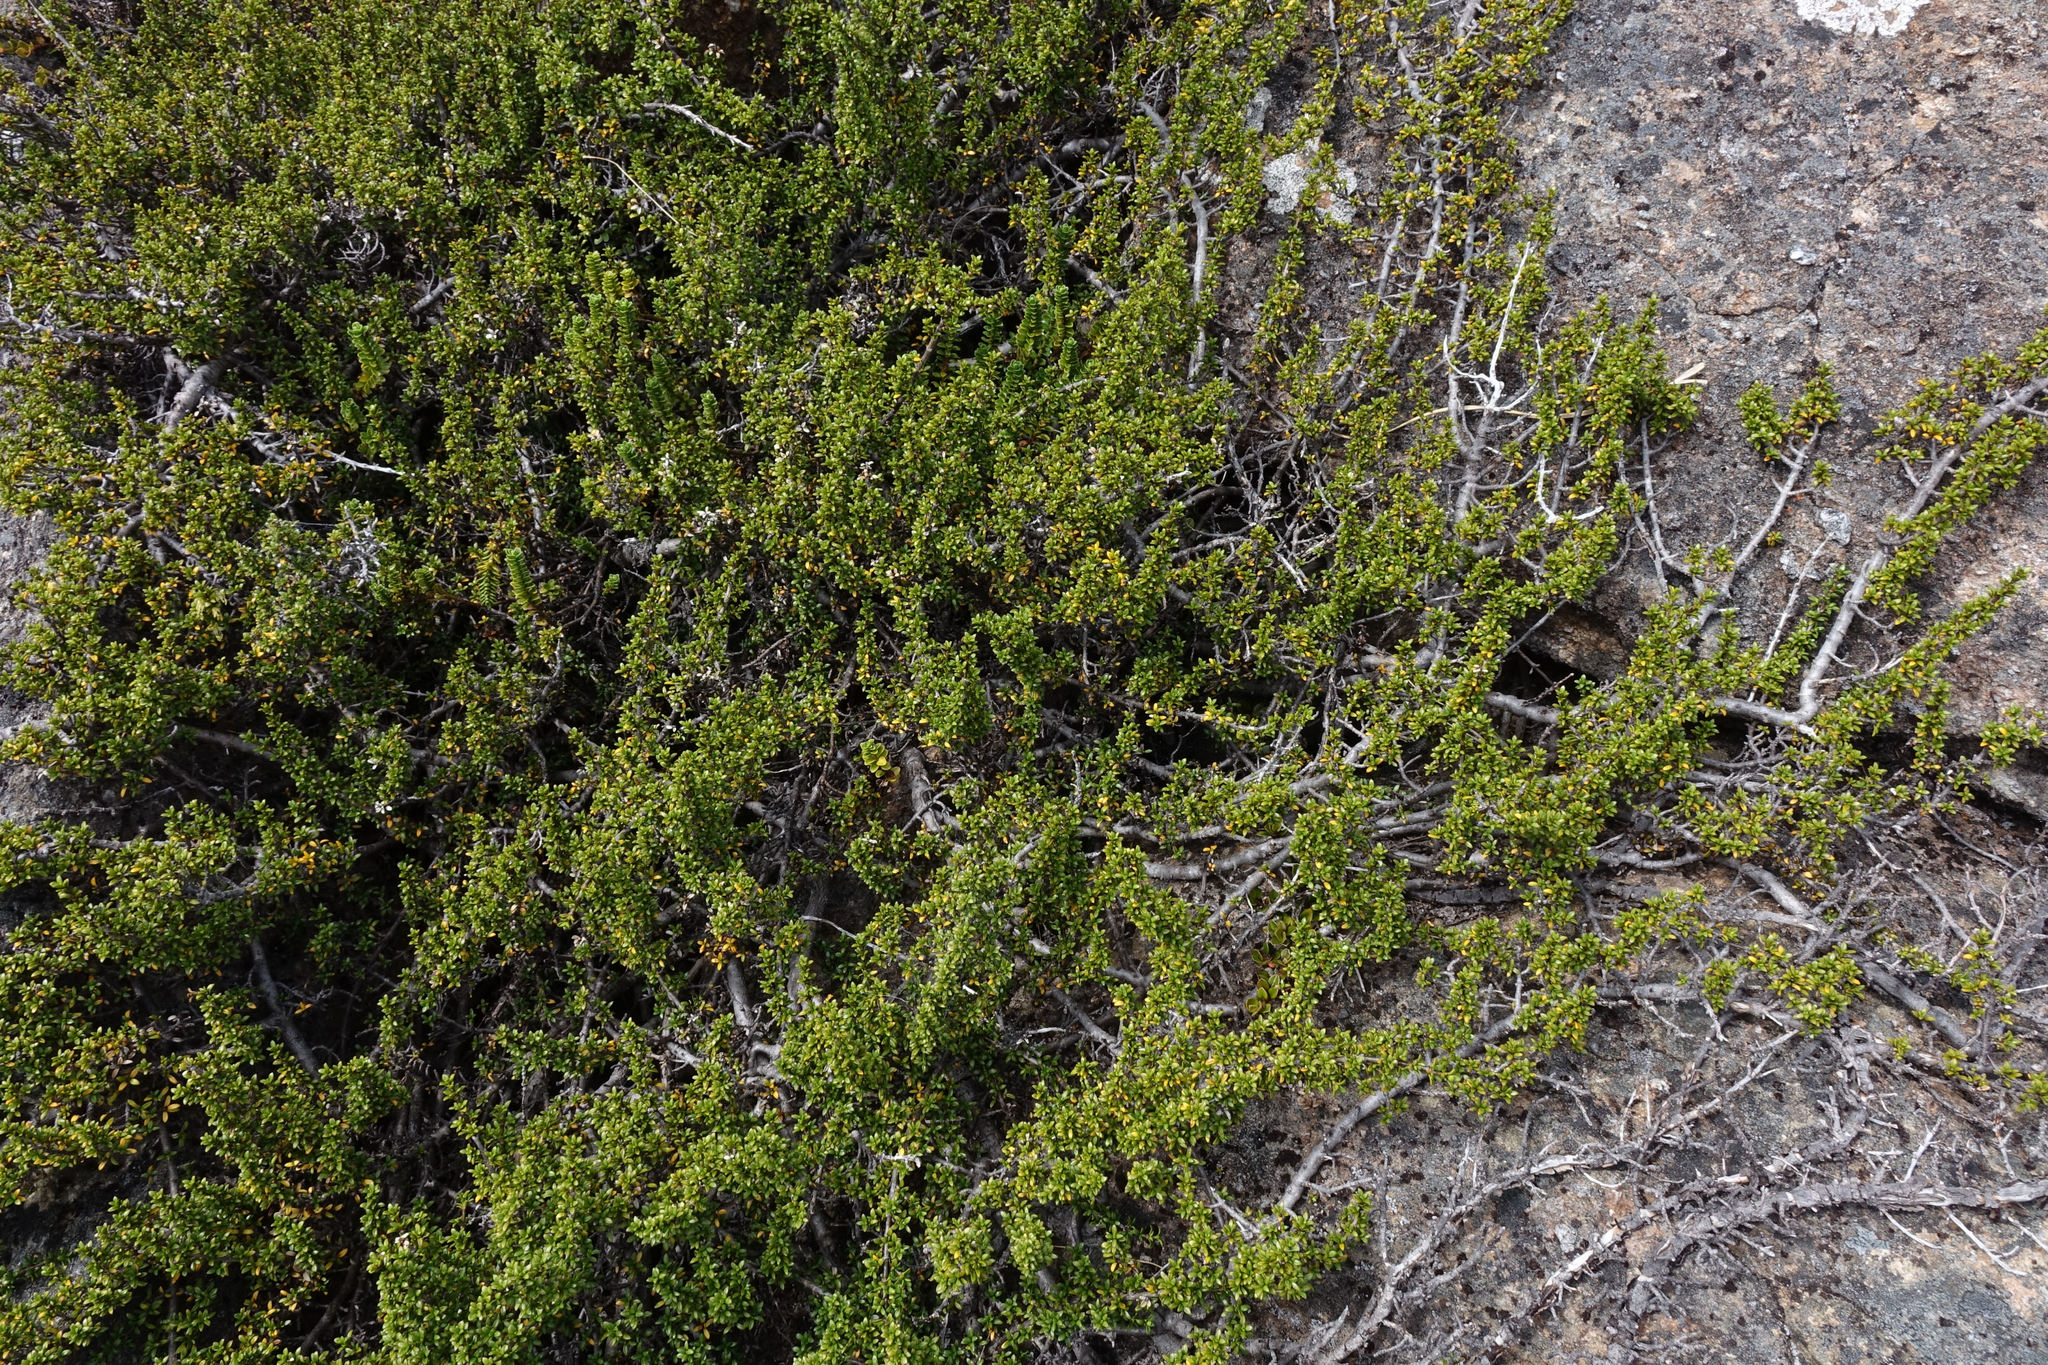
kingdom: Plantae
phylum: Tracheophyta
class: Magnoliopsida
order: Gentianales
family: Rubiaceae
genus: Coprosma
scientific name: Coprosma fowerakeri
